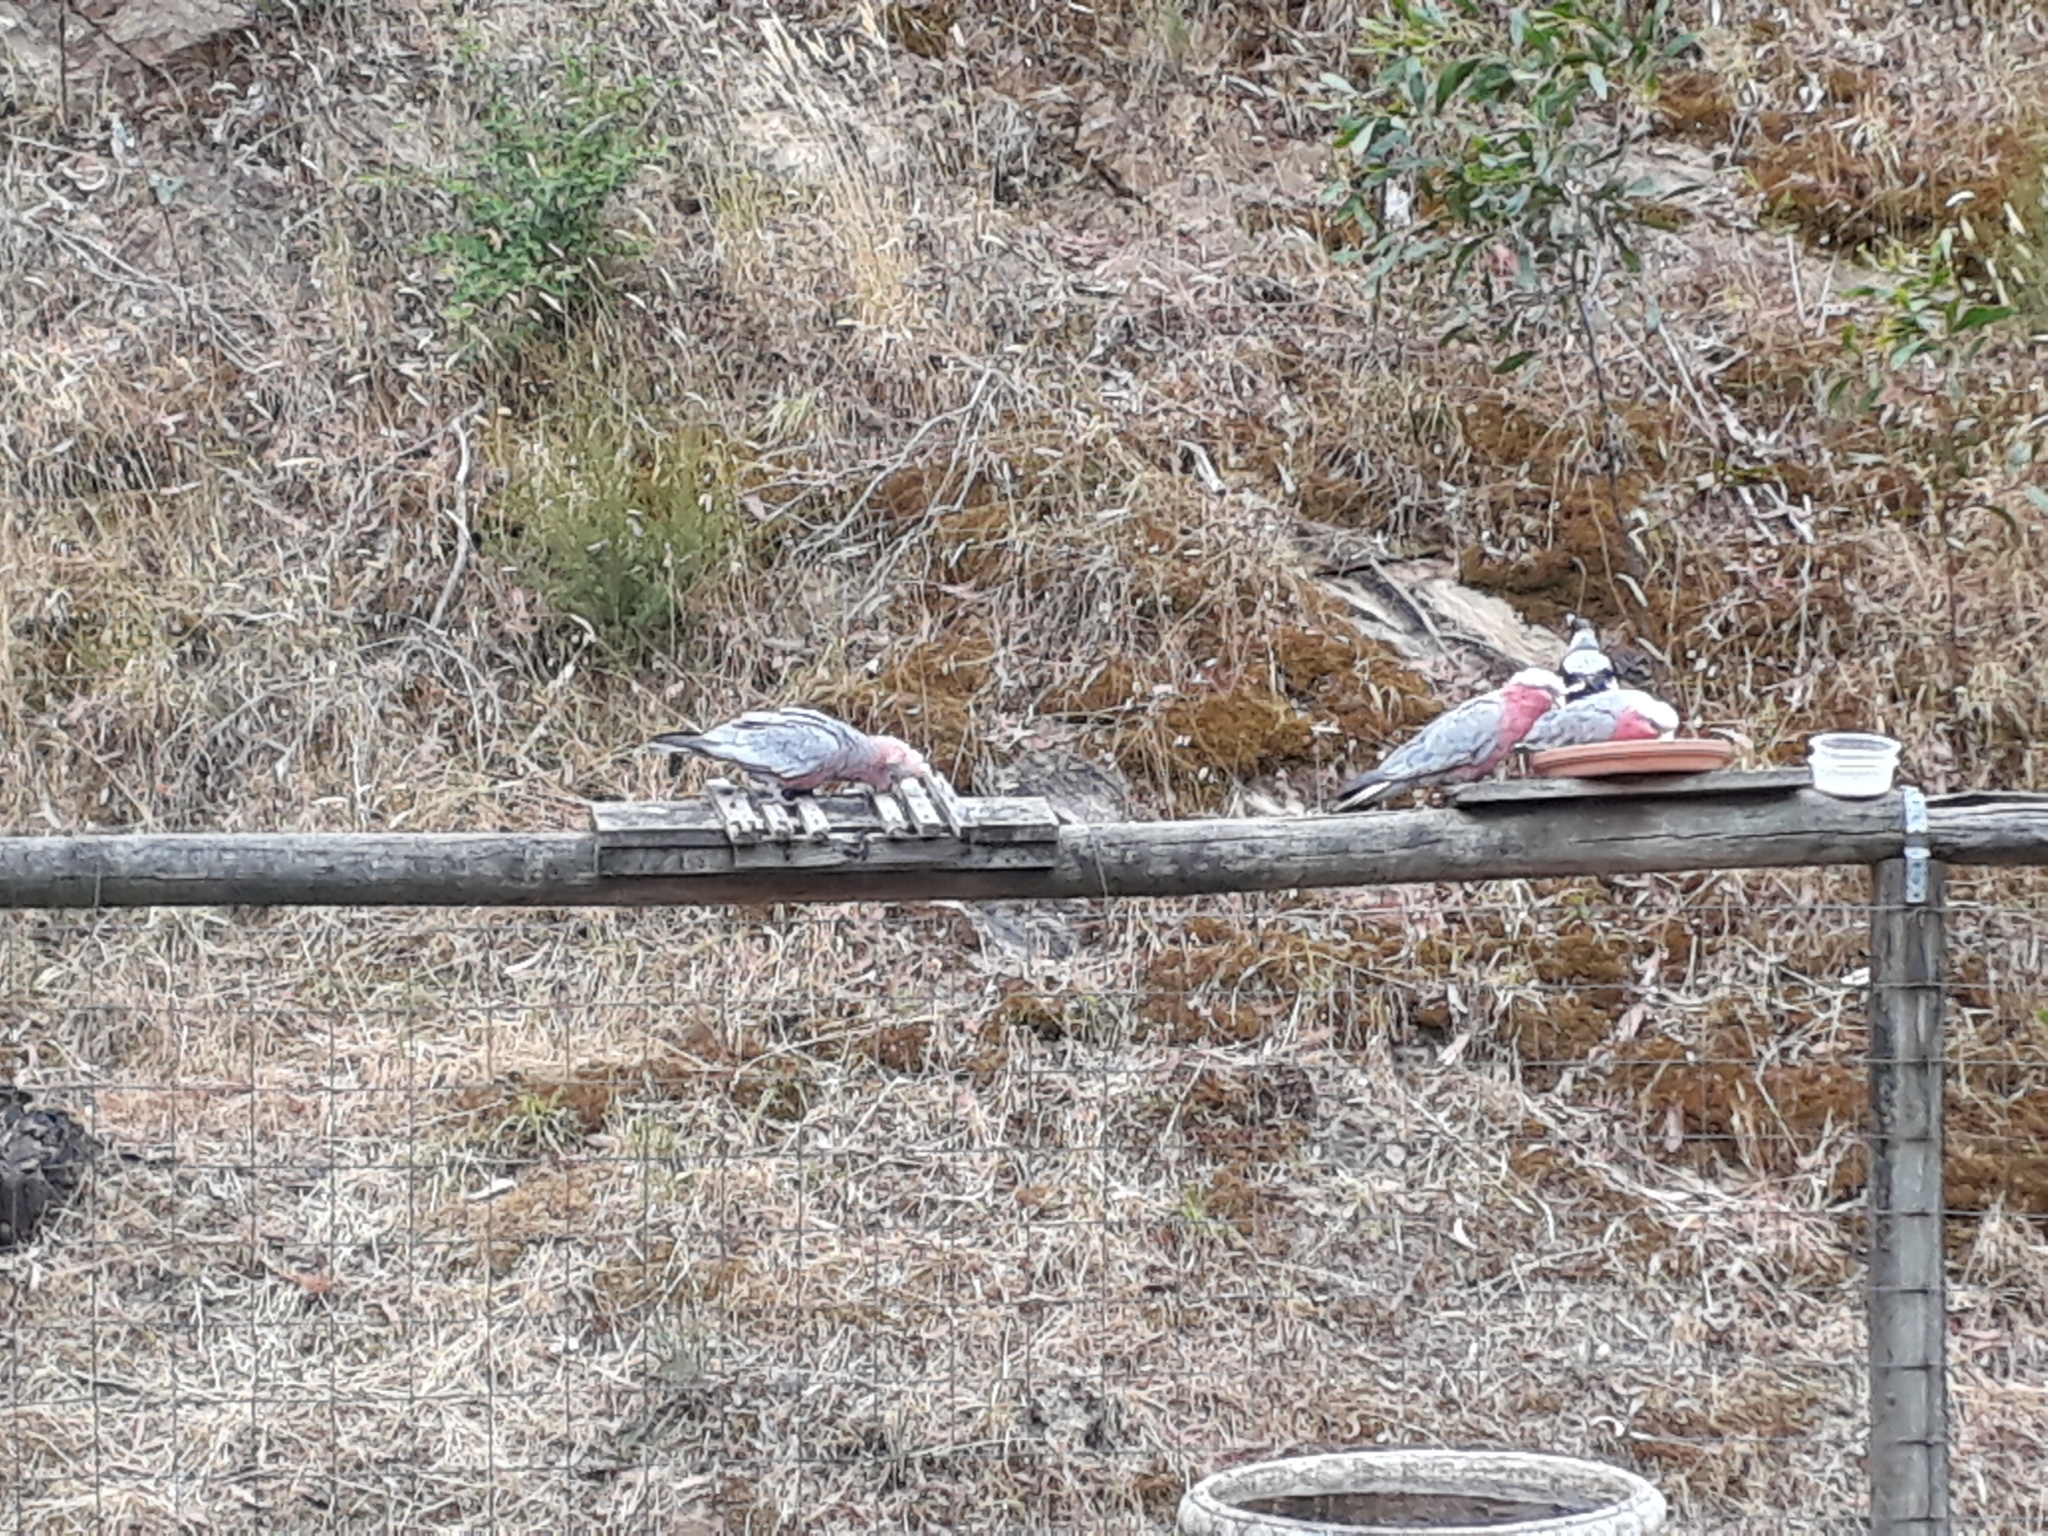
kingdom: Animalia
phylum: Chordata
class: Aves
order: Psittaciformes
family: Psittacidae
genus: Eolophus
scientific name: Eolophus roseicapilla
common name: Galah
